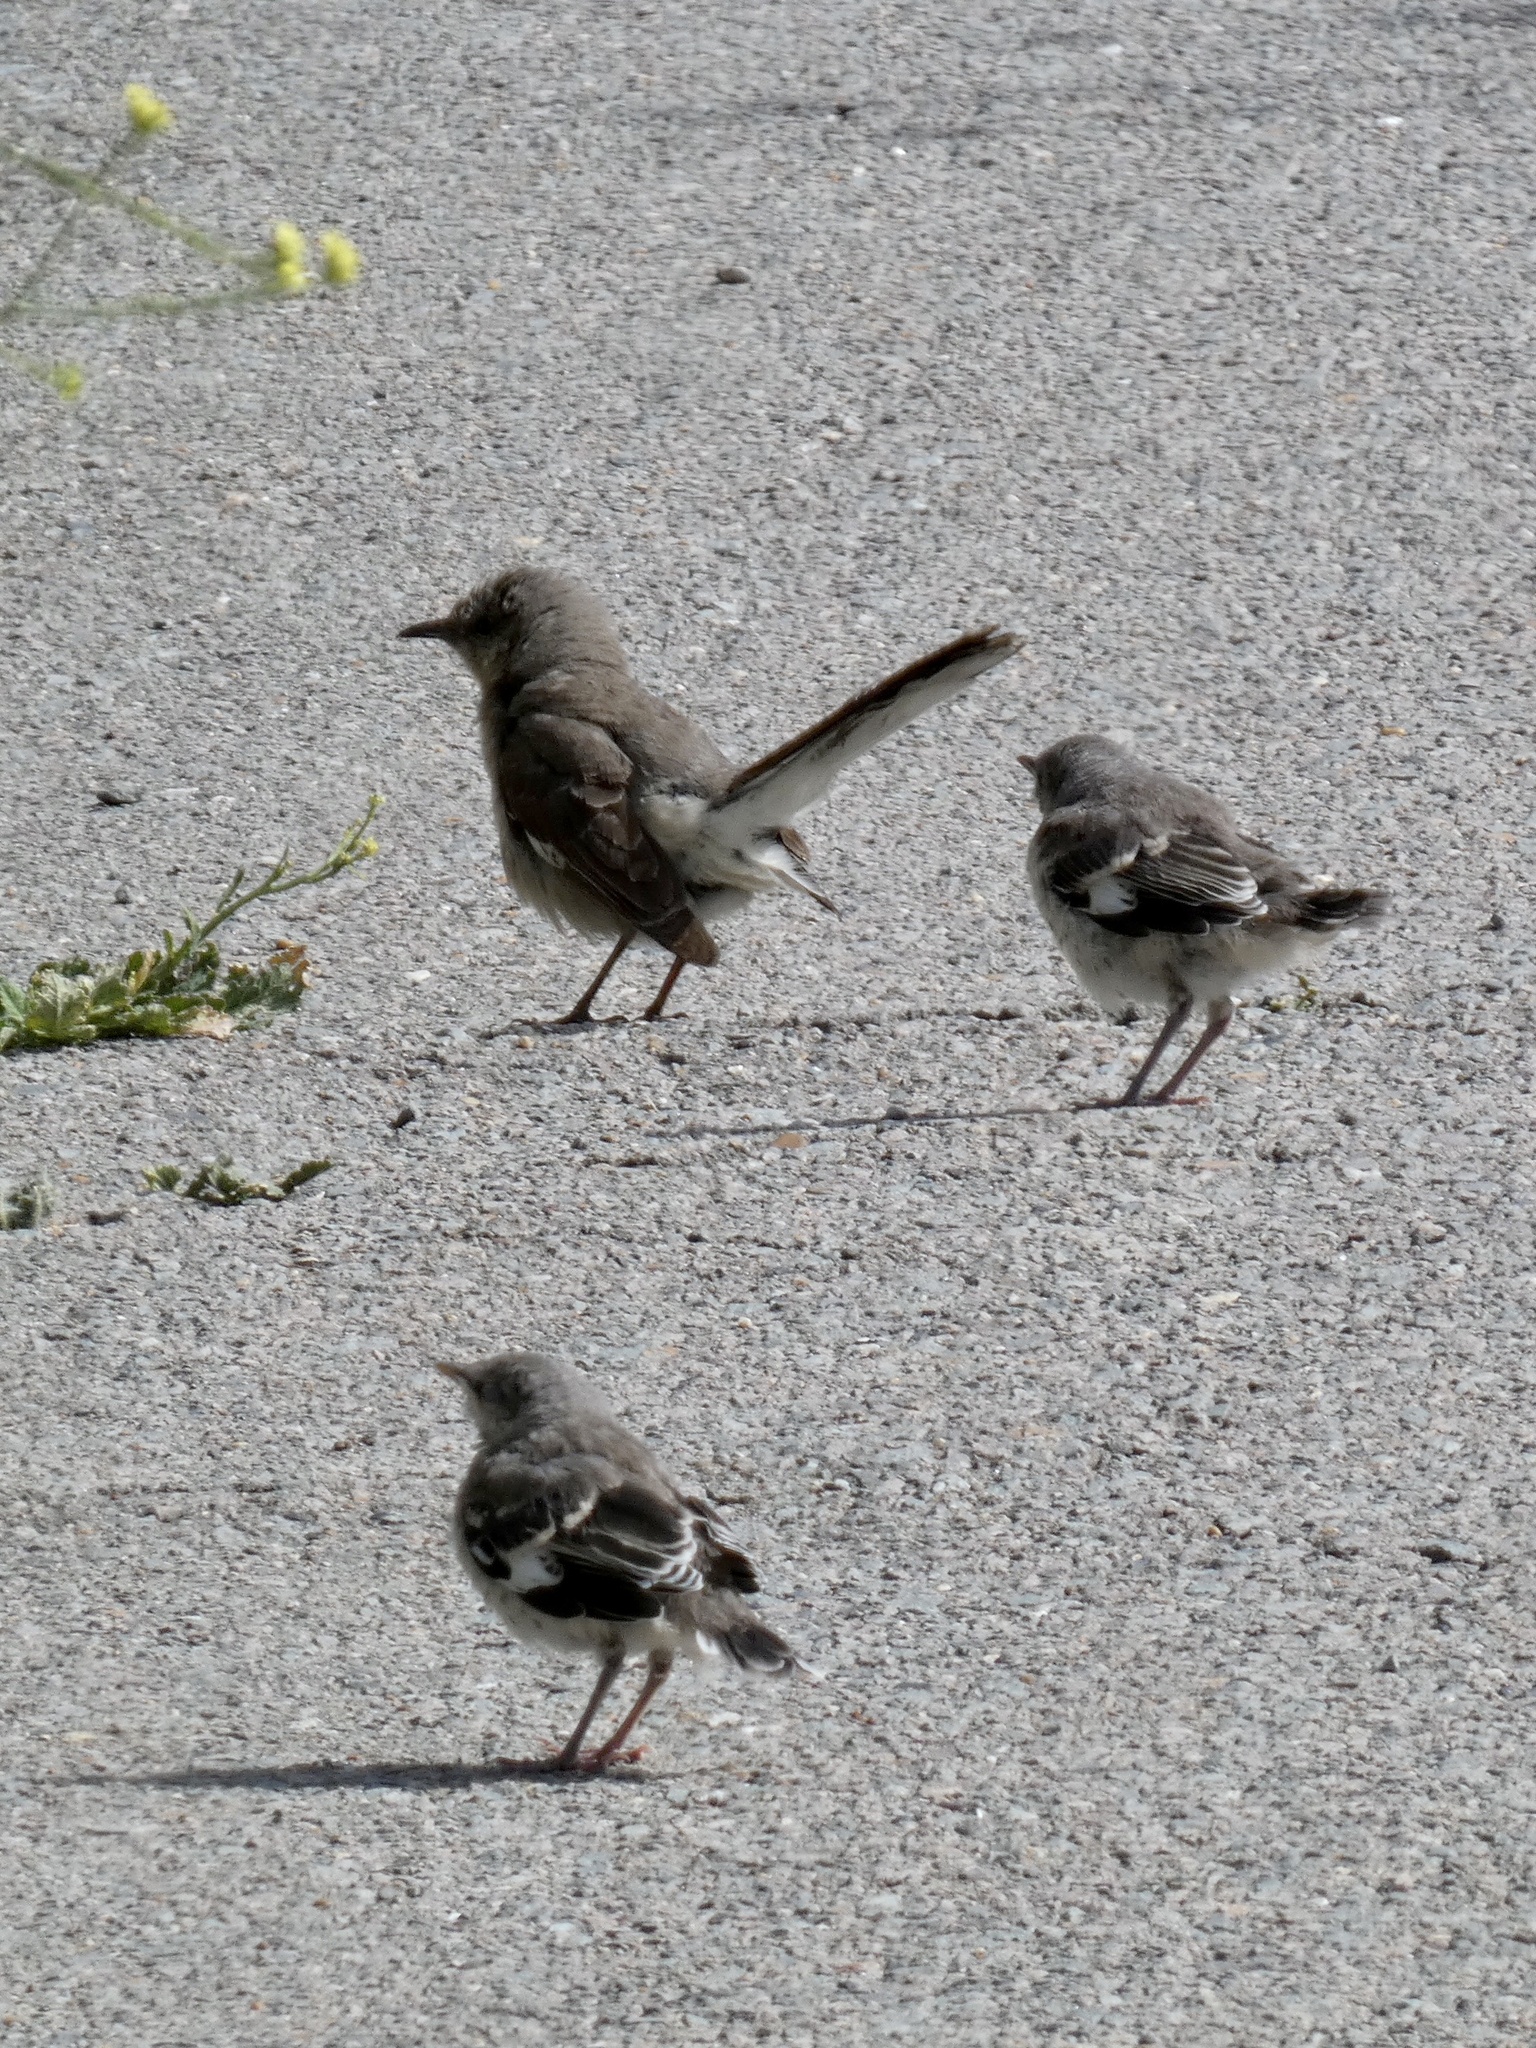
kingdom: Animalia
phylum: Chordata
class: Aves
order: Passeriformes
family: Mimidae
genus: Mimus
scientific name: Mimus polyglottos
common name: Northern mockingbird
